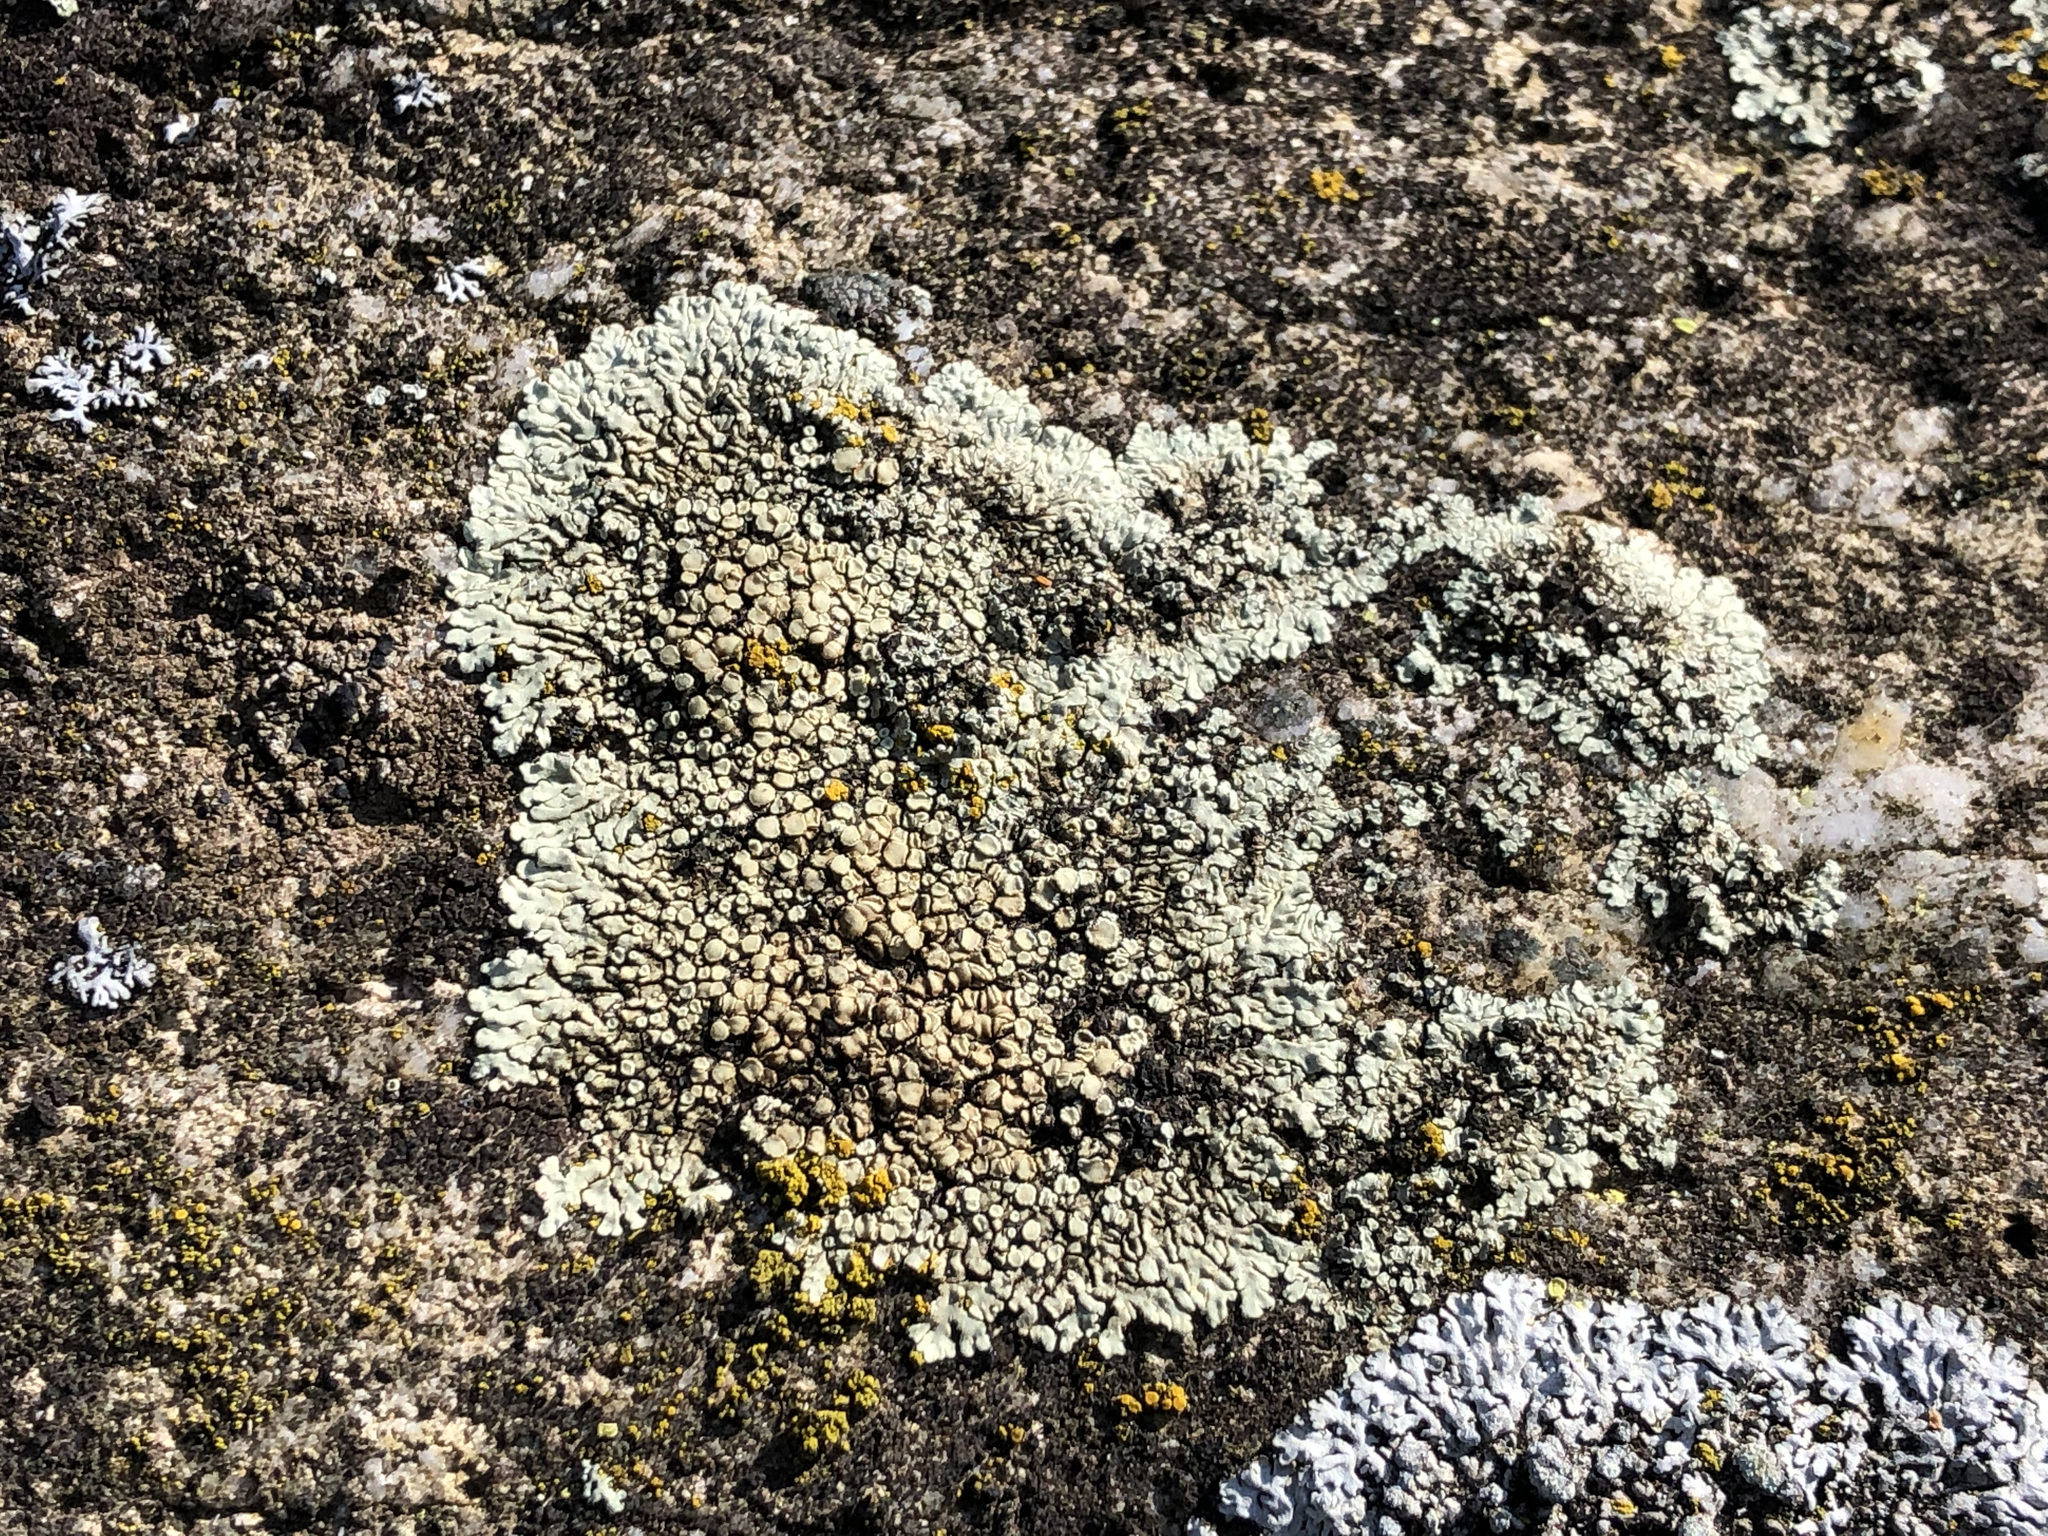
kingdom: Fungi
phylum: Ascomycota
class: Lecanoromycetes
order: Lecanorales
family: Lecanoraceae
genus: Protoparmeliopsis
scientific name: Protoparmeliopsis muralis
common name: Stonewall rim lichen
